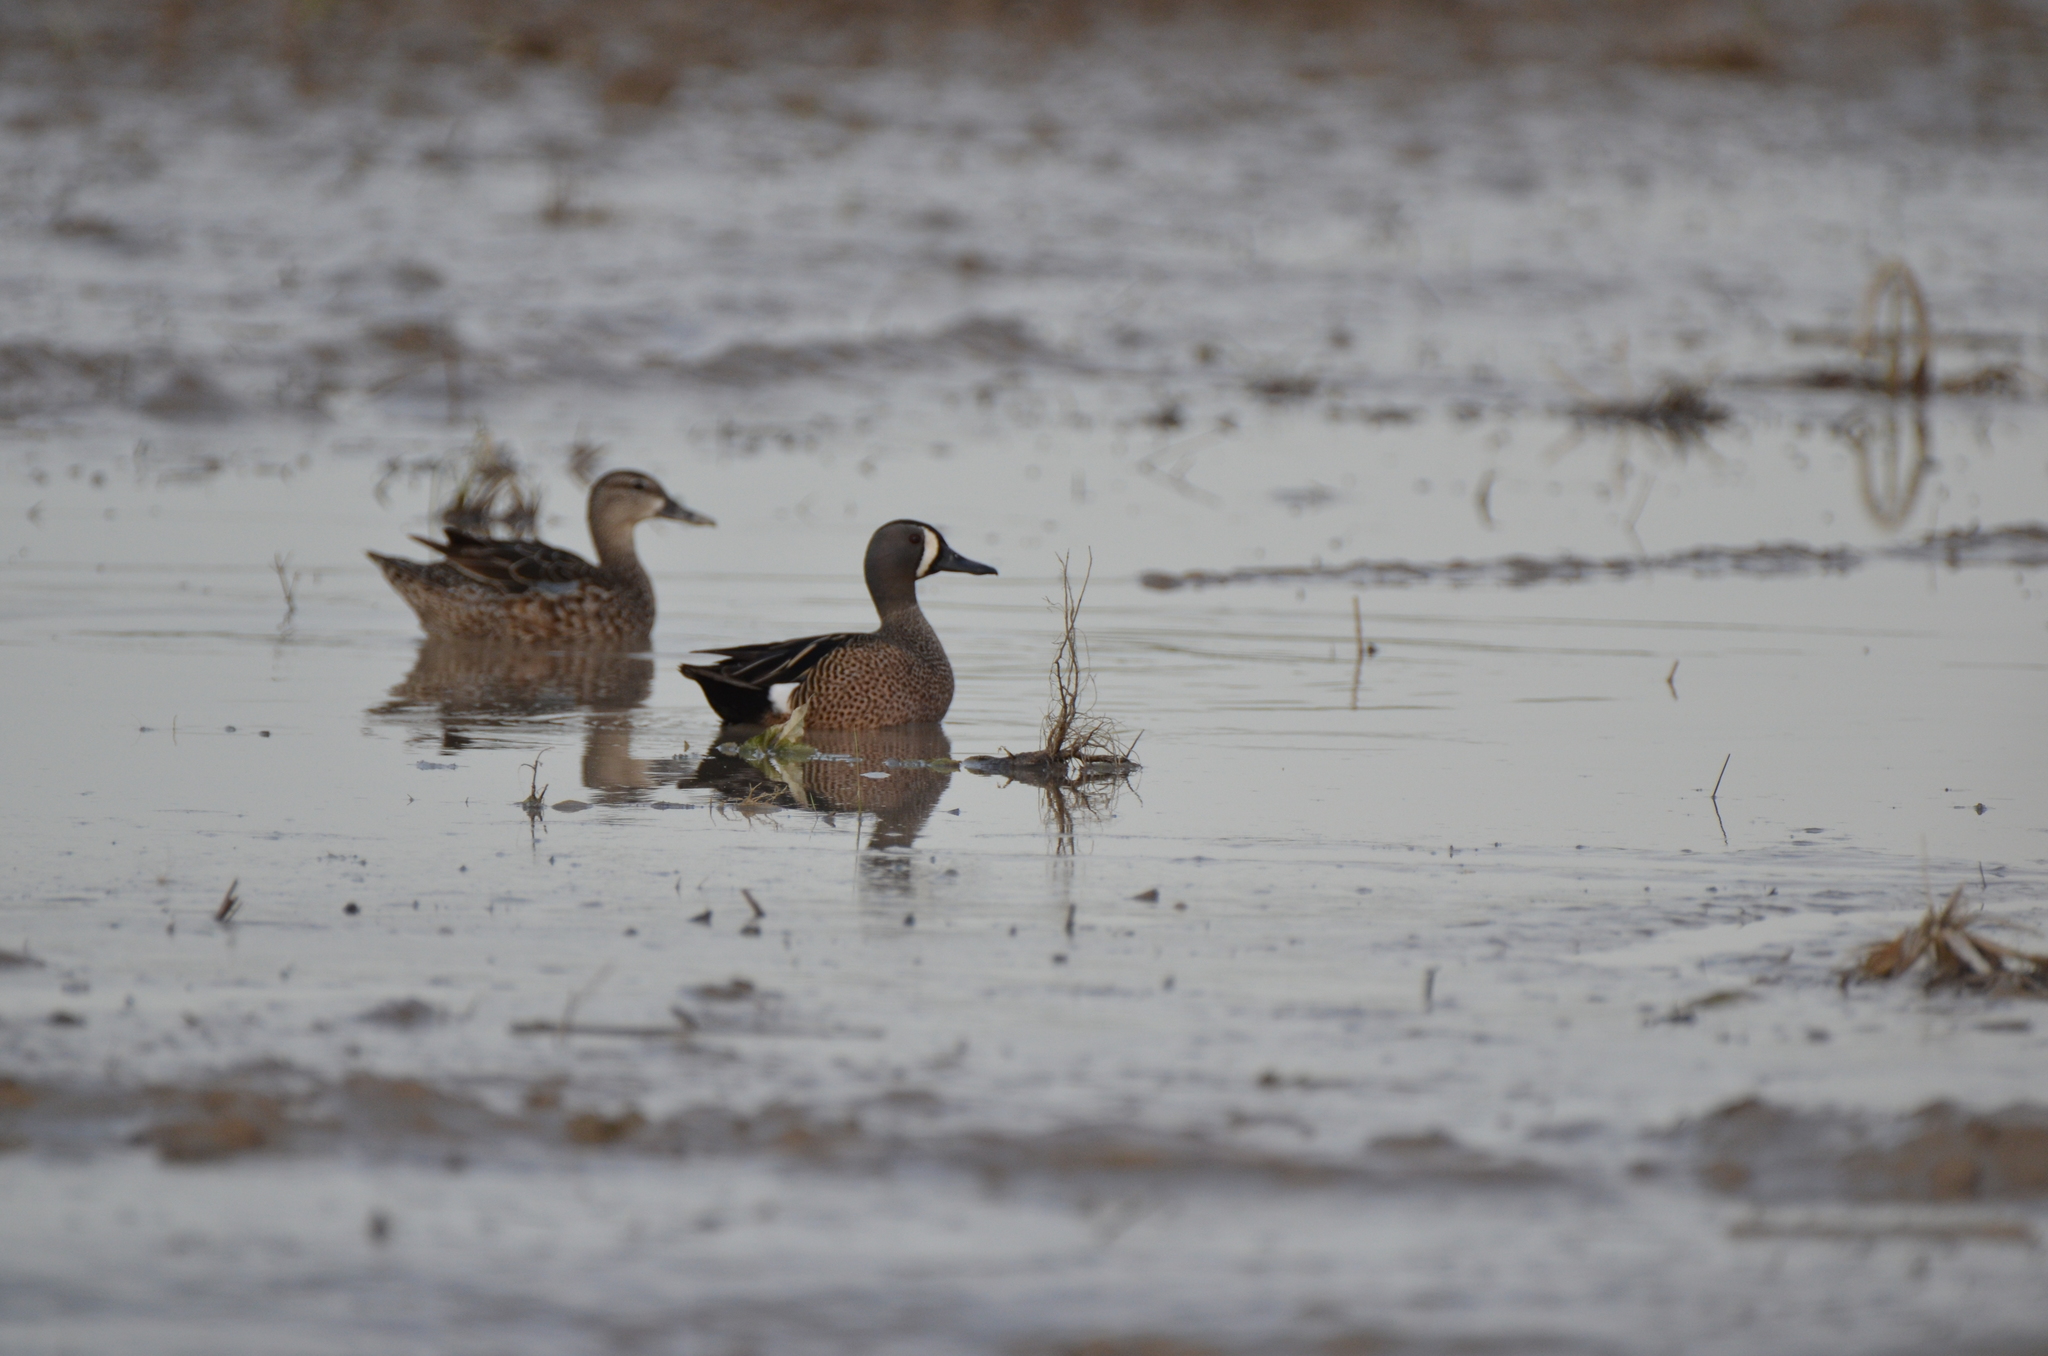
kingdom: Animalia
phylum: Chordata
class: Aves
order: Anseriformes
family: Anatidae
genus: Spatula
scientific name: Spatula discors
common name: Blue-winged teal
